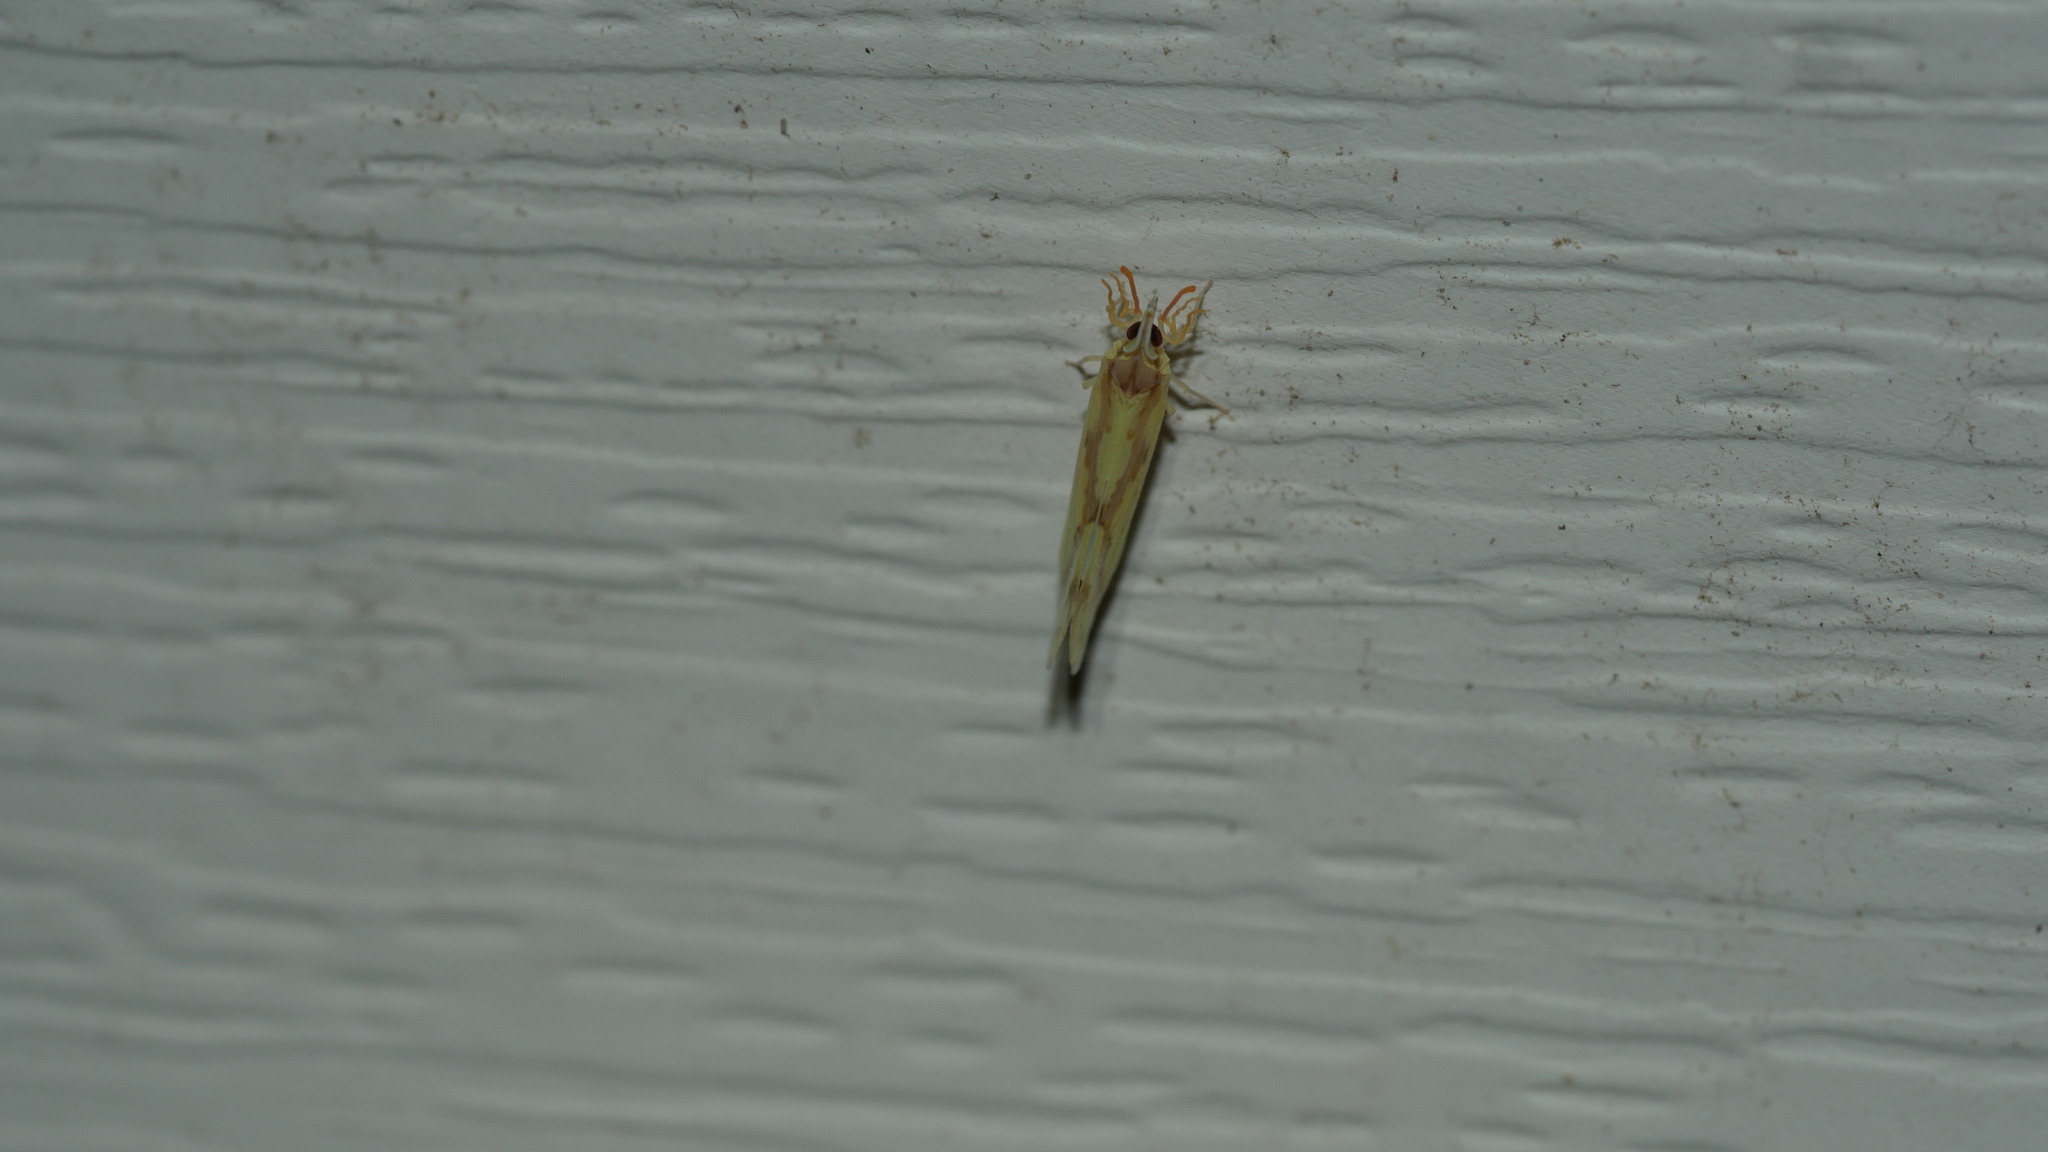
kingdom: Animalia
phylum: Arthropoda
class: Insecta
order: Hemiptera
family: Derbidae
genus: Otiocerus
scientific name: Otiocerus wolfii
